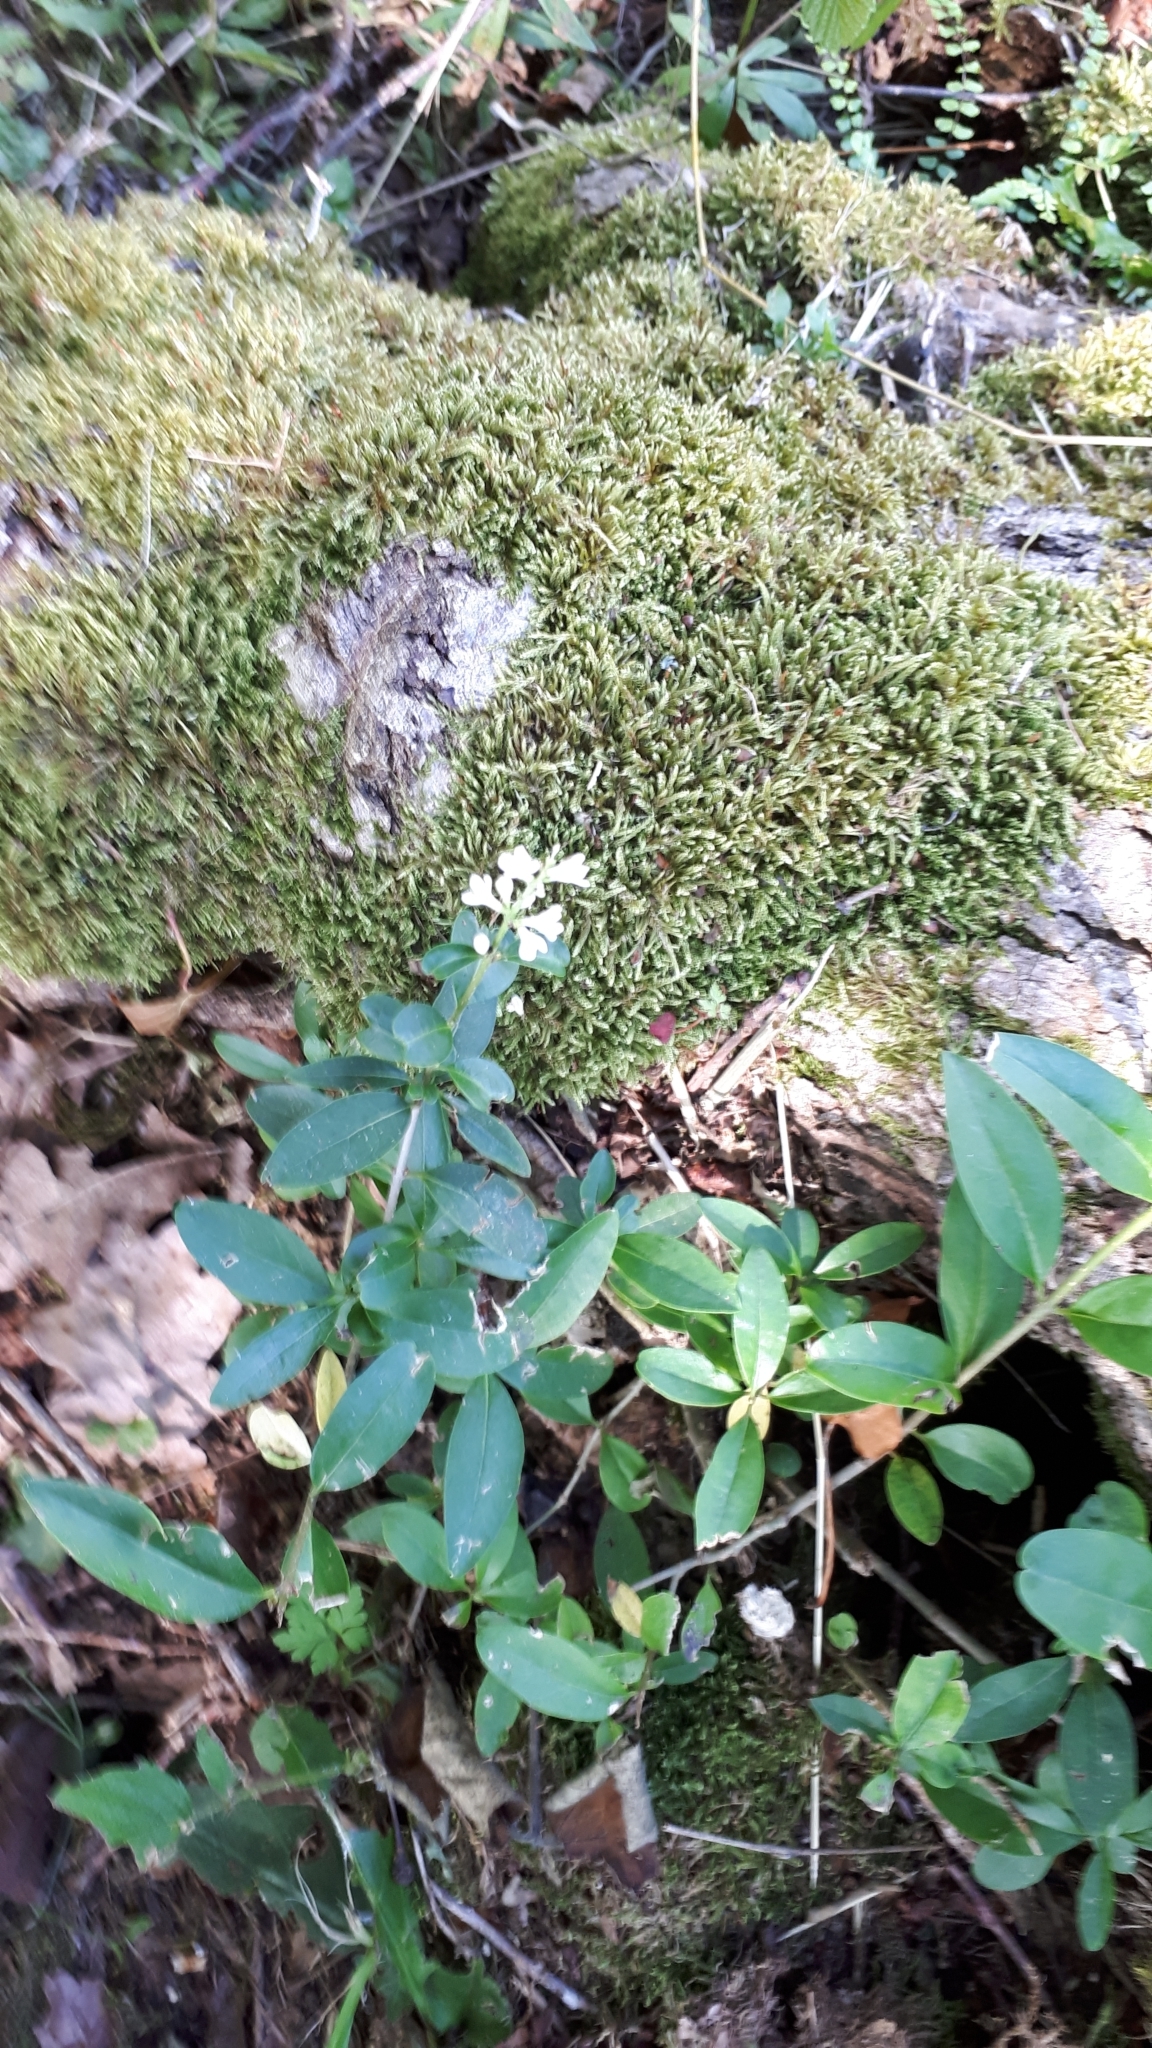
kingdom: Plantae
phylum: Tracheophyta
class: Magnoliopsida
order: Lamiales
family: Oleaceae
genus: Ligustrum
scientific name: Ligustrum vulgare
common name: Wild privet
